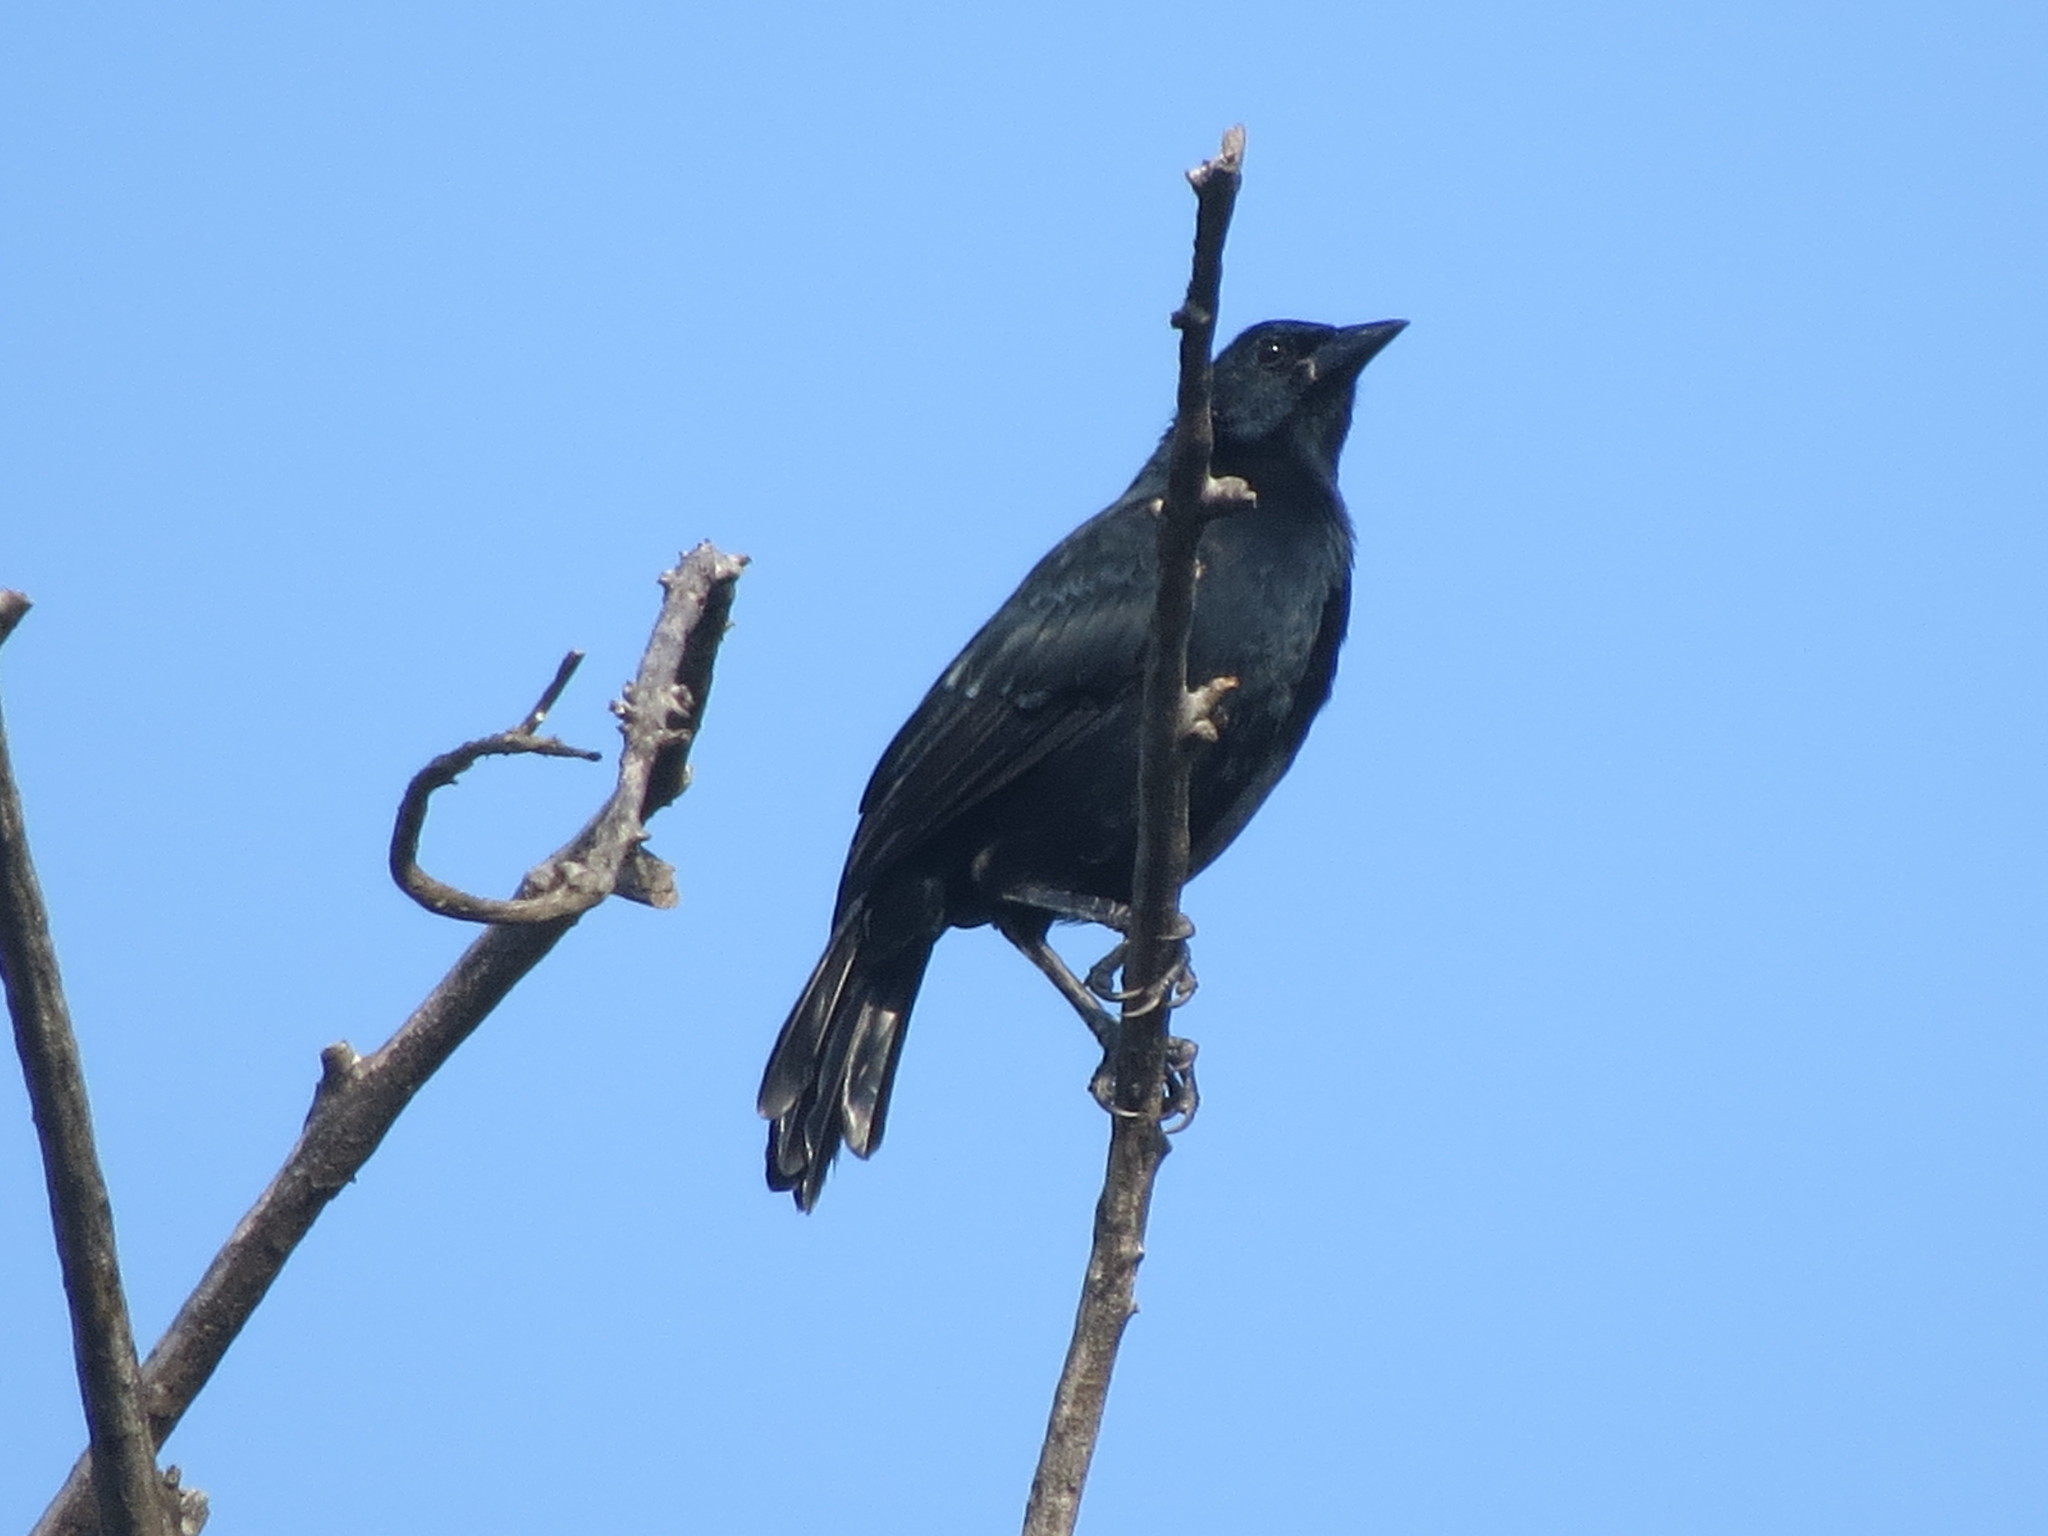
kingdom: Animalia
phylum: Chordata
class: Aves
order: Passeriformes
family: Icteridae
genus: Dives
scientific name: Dives dives
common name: Melodious blackbird
